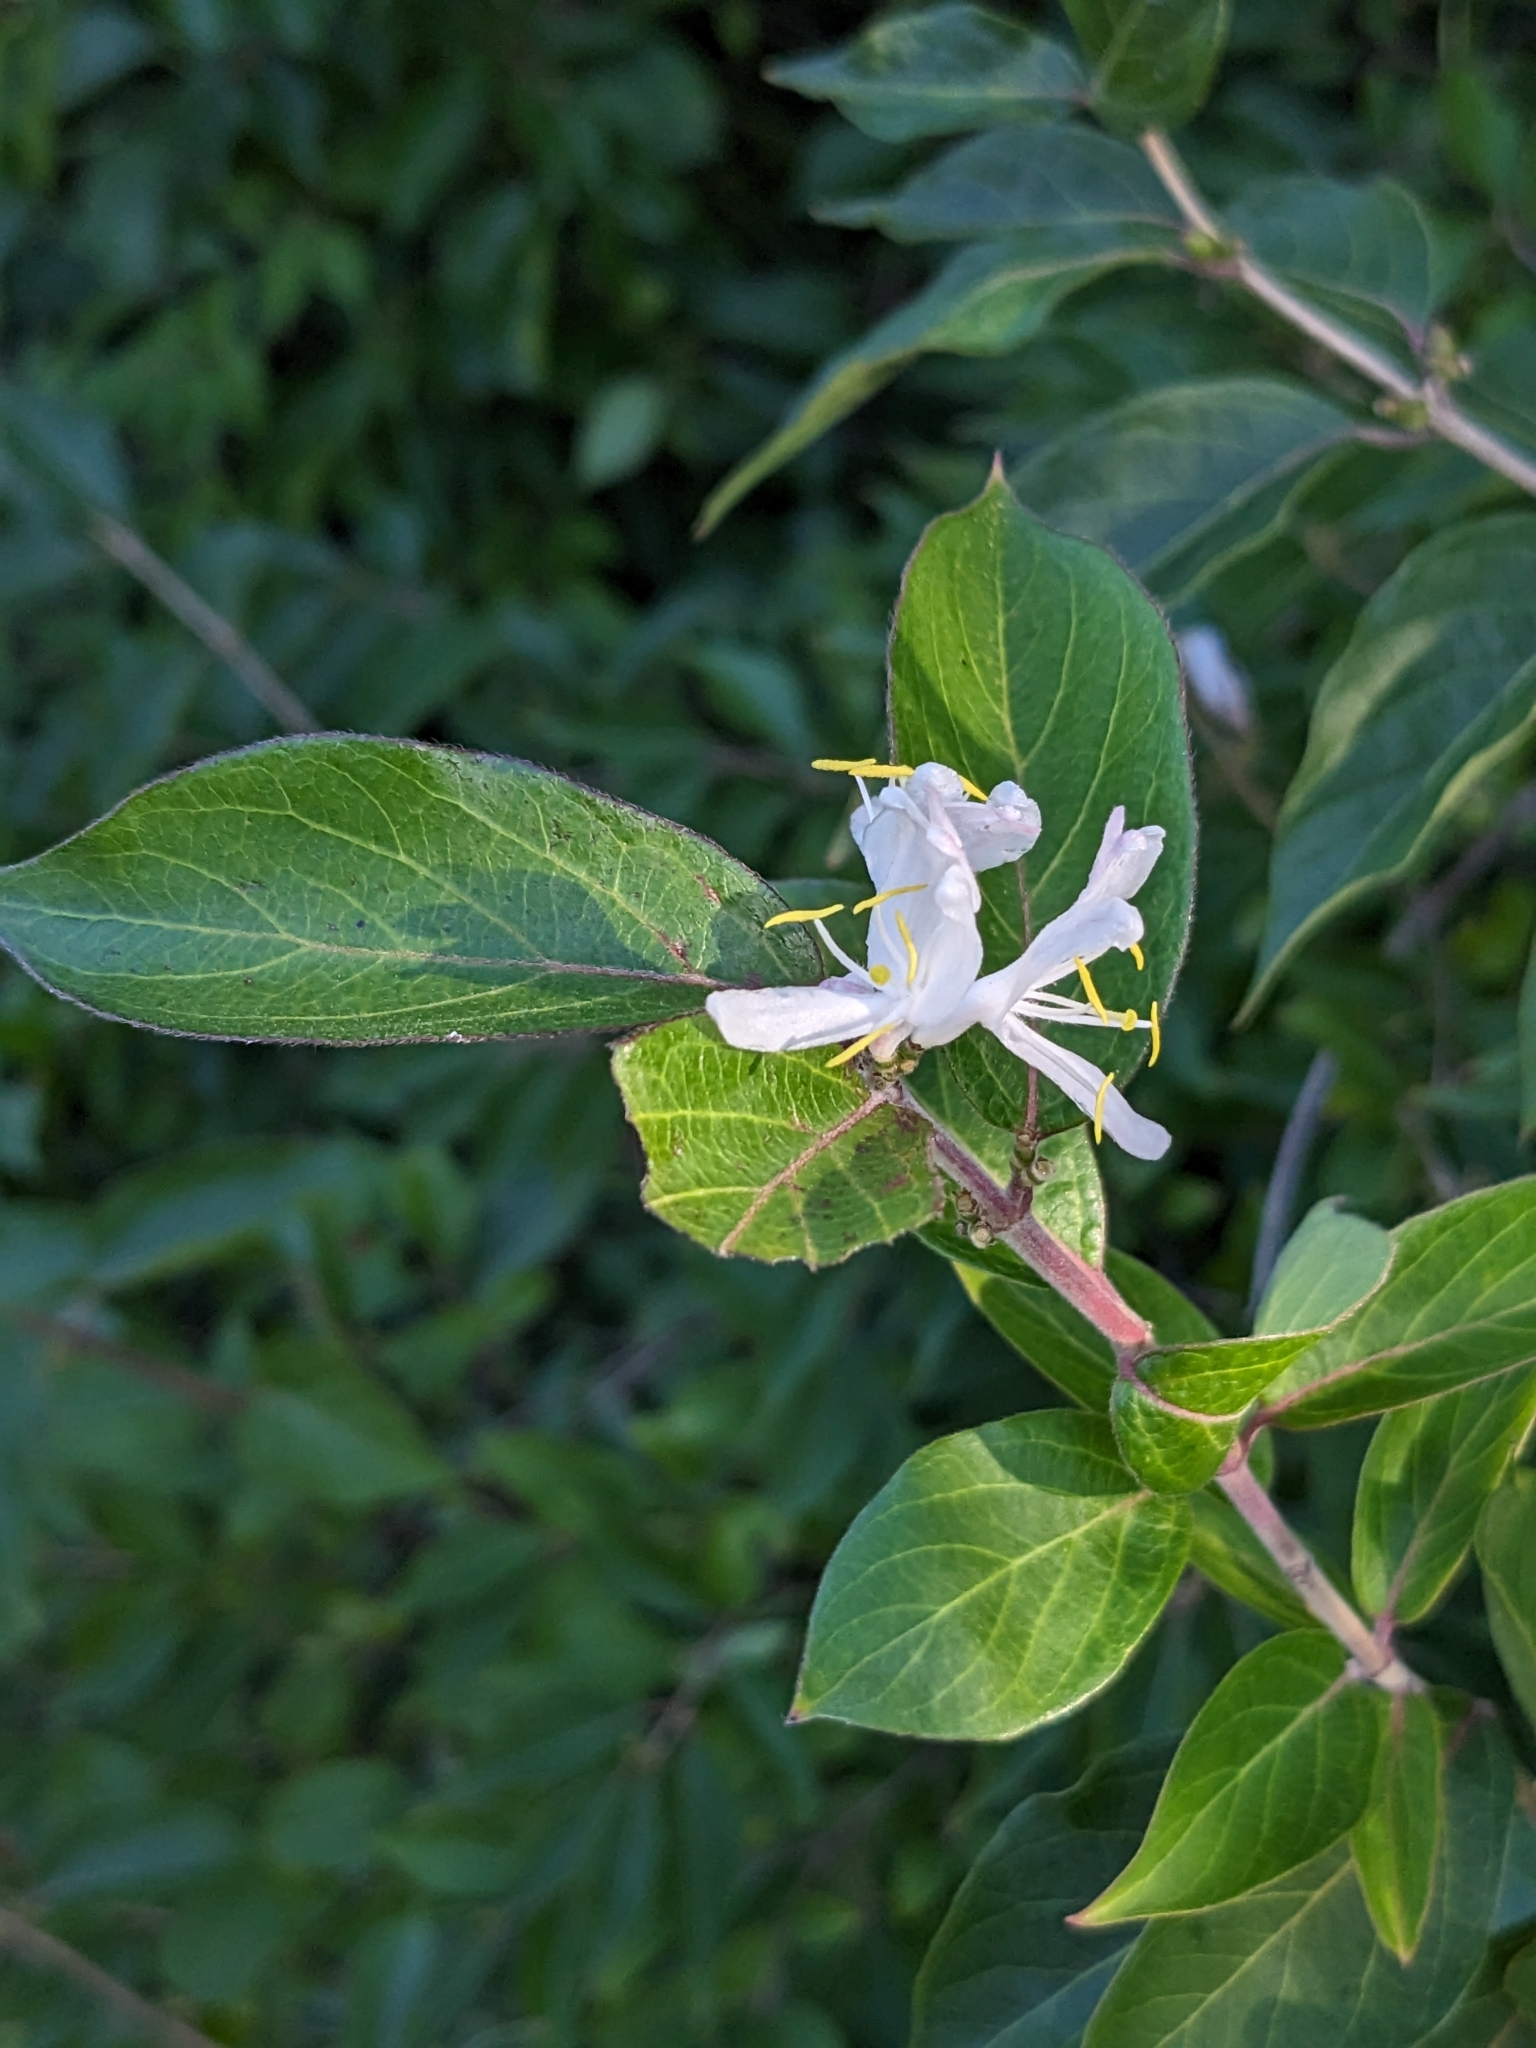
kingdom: Plantae
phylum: Tracheophyta
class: Magnoliopsida
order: Dipsacales
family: Caprifoliaceae
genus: Lonicera
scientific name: Lonicera maackii
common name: Amur honeysuckle
